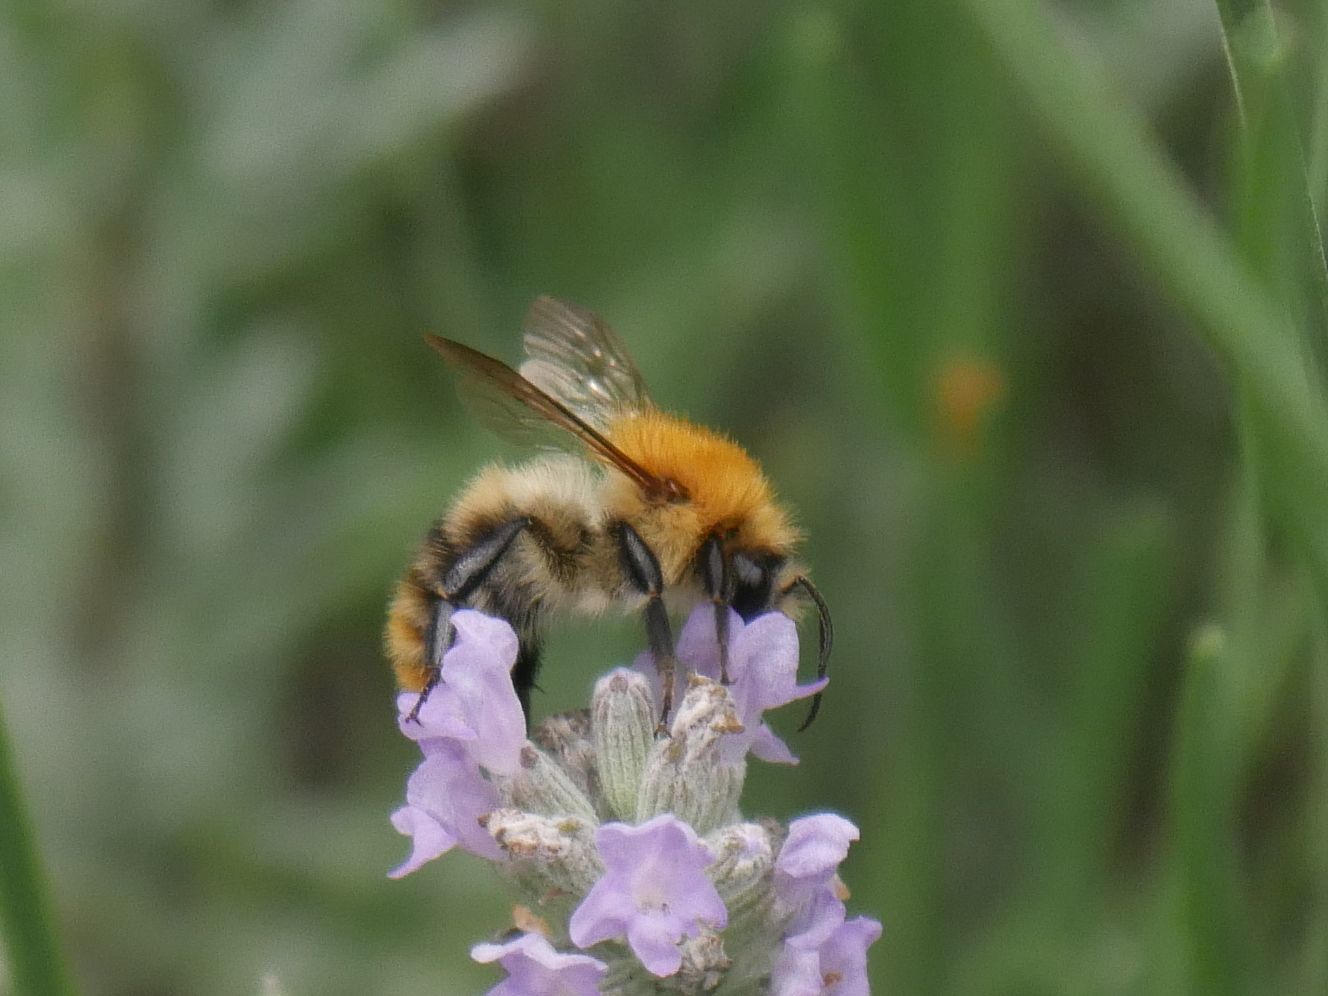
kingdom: Animalia
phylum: Arthropoda
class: Insecta
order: Hymenoptera
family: Apidae
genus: Bombus
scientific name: Bombus pascuorum
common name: Common carder bee
